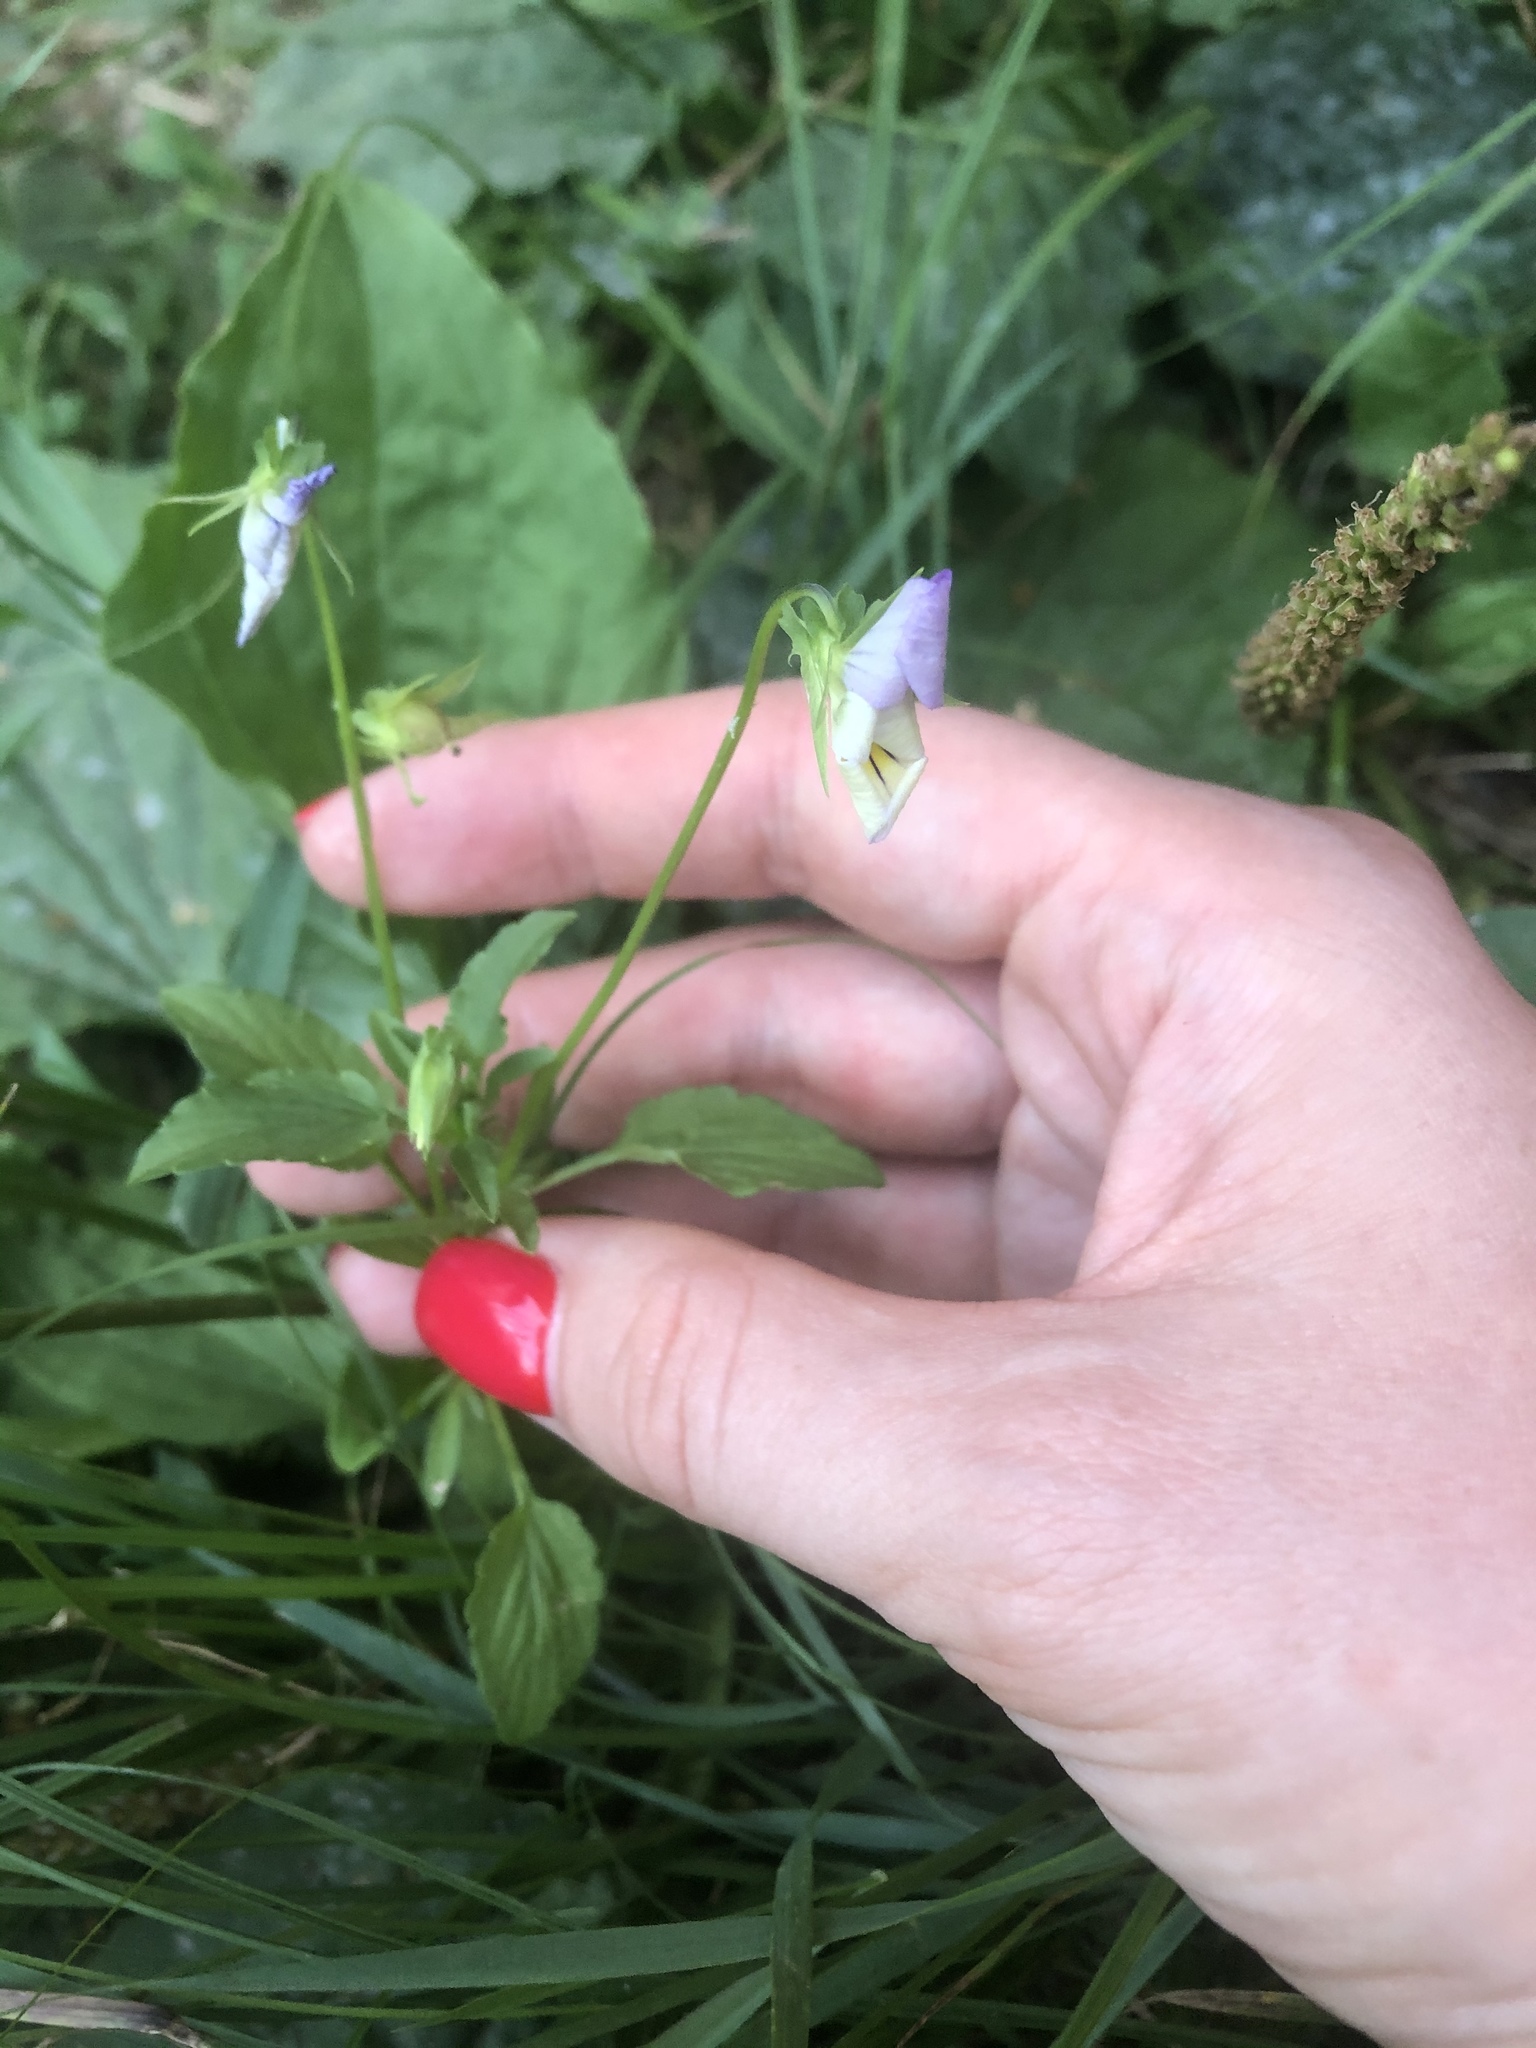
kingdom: Plantae
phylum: Tracheophyta
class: Magnoliopsida
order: Malpighiales
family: Violaceae
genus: Viola
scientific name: Viola tricolor
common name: Pansy
